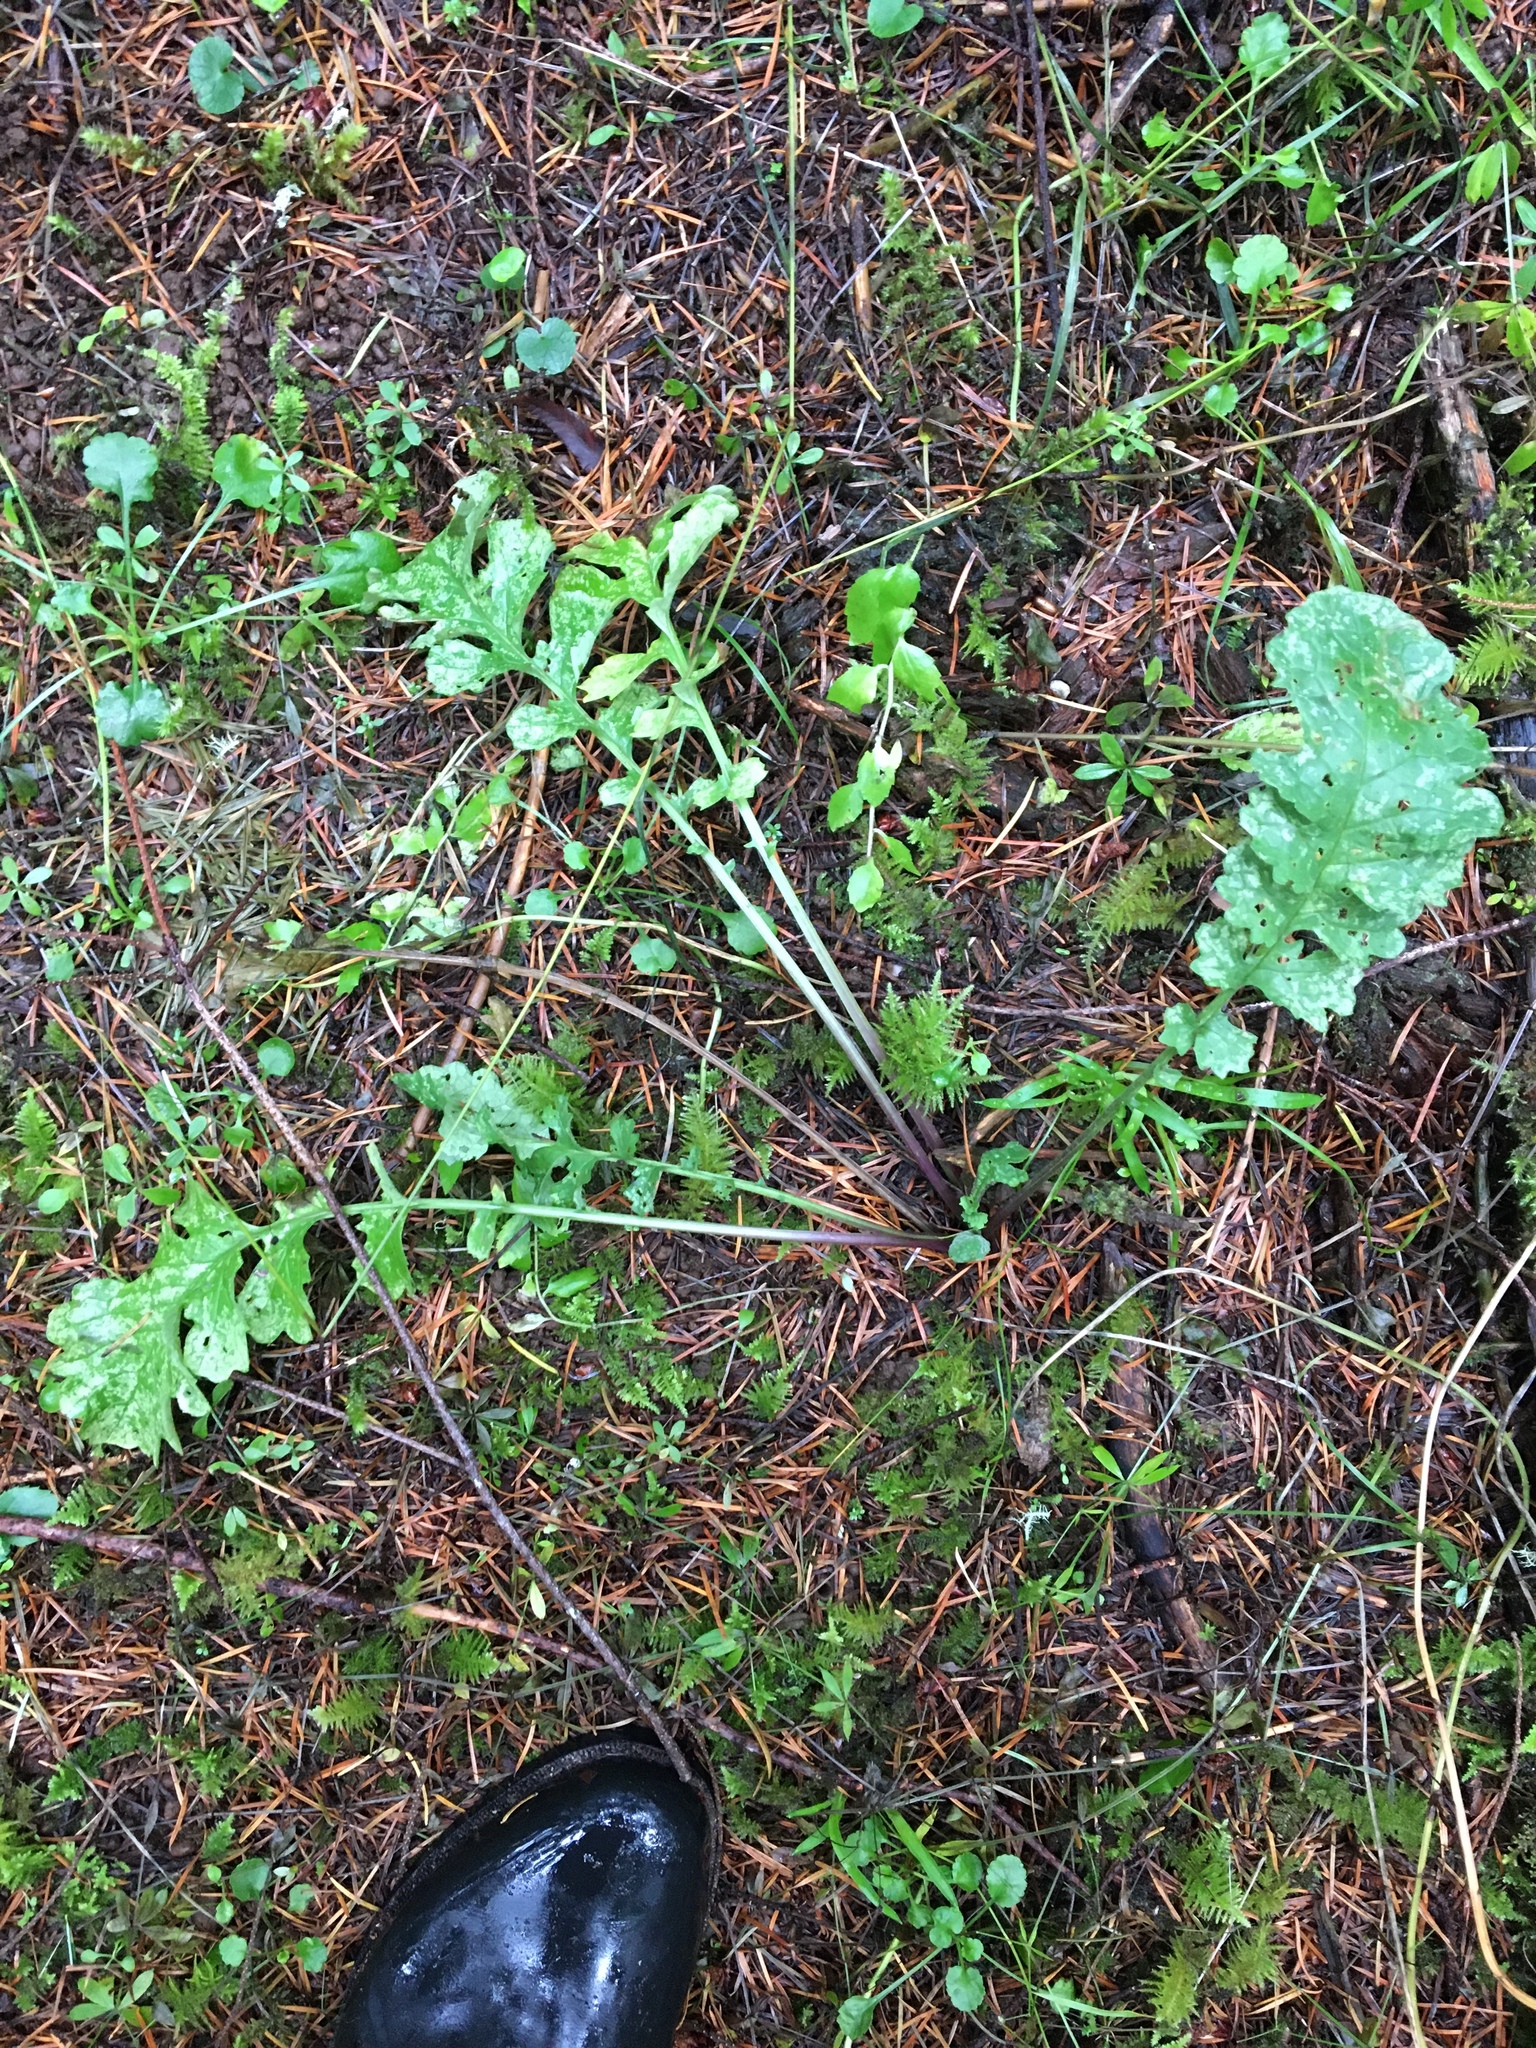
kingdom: Plantae
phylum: Tracheophyta
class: Magnoliopsida
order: Asterales
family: Asteraceae
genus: Jacobaea
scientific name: Jacobaea vulgaris
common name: Stinking willie
